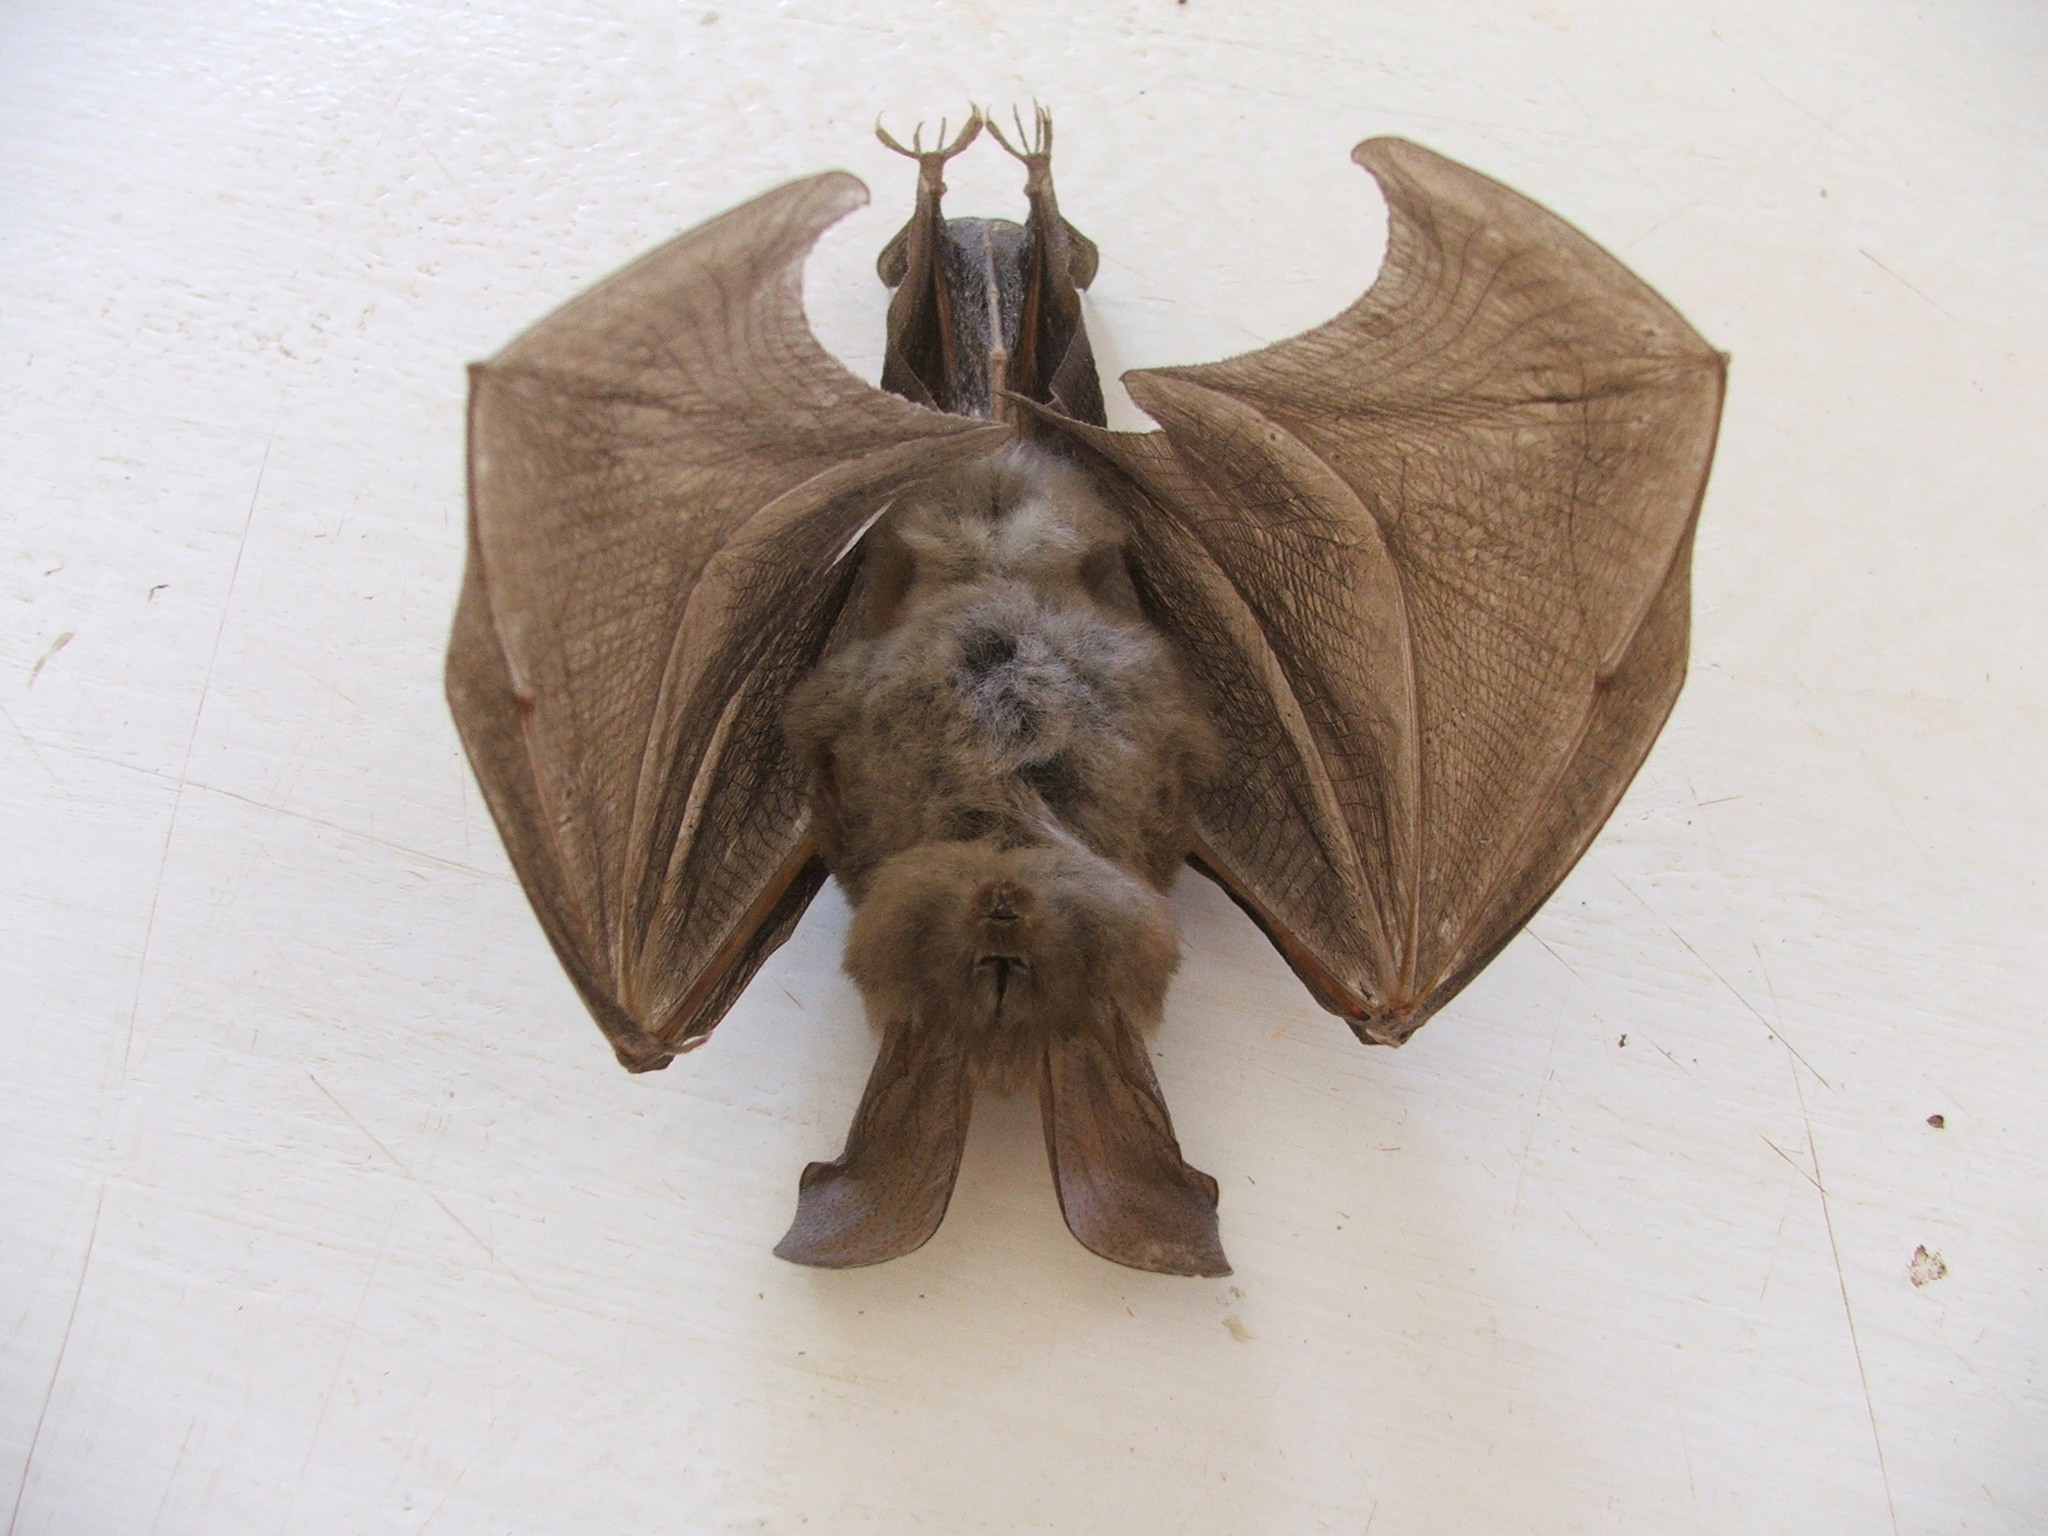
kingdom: Animalia
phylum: Chordata
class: Mammalia
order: Chiroptera
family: Nycteridae
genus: Nycteris
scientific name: Nycteris thebaica
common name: Egyptian slit-faced bat
